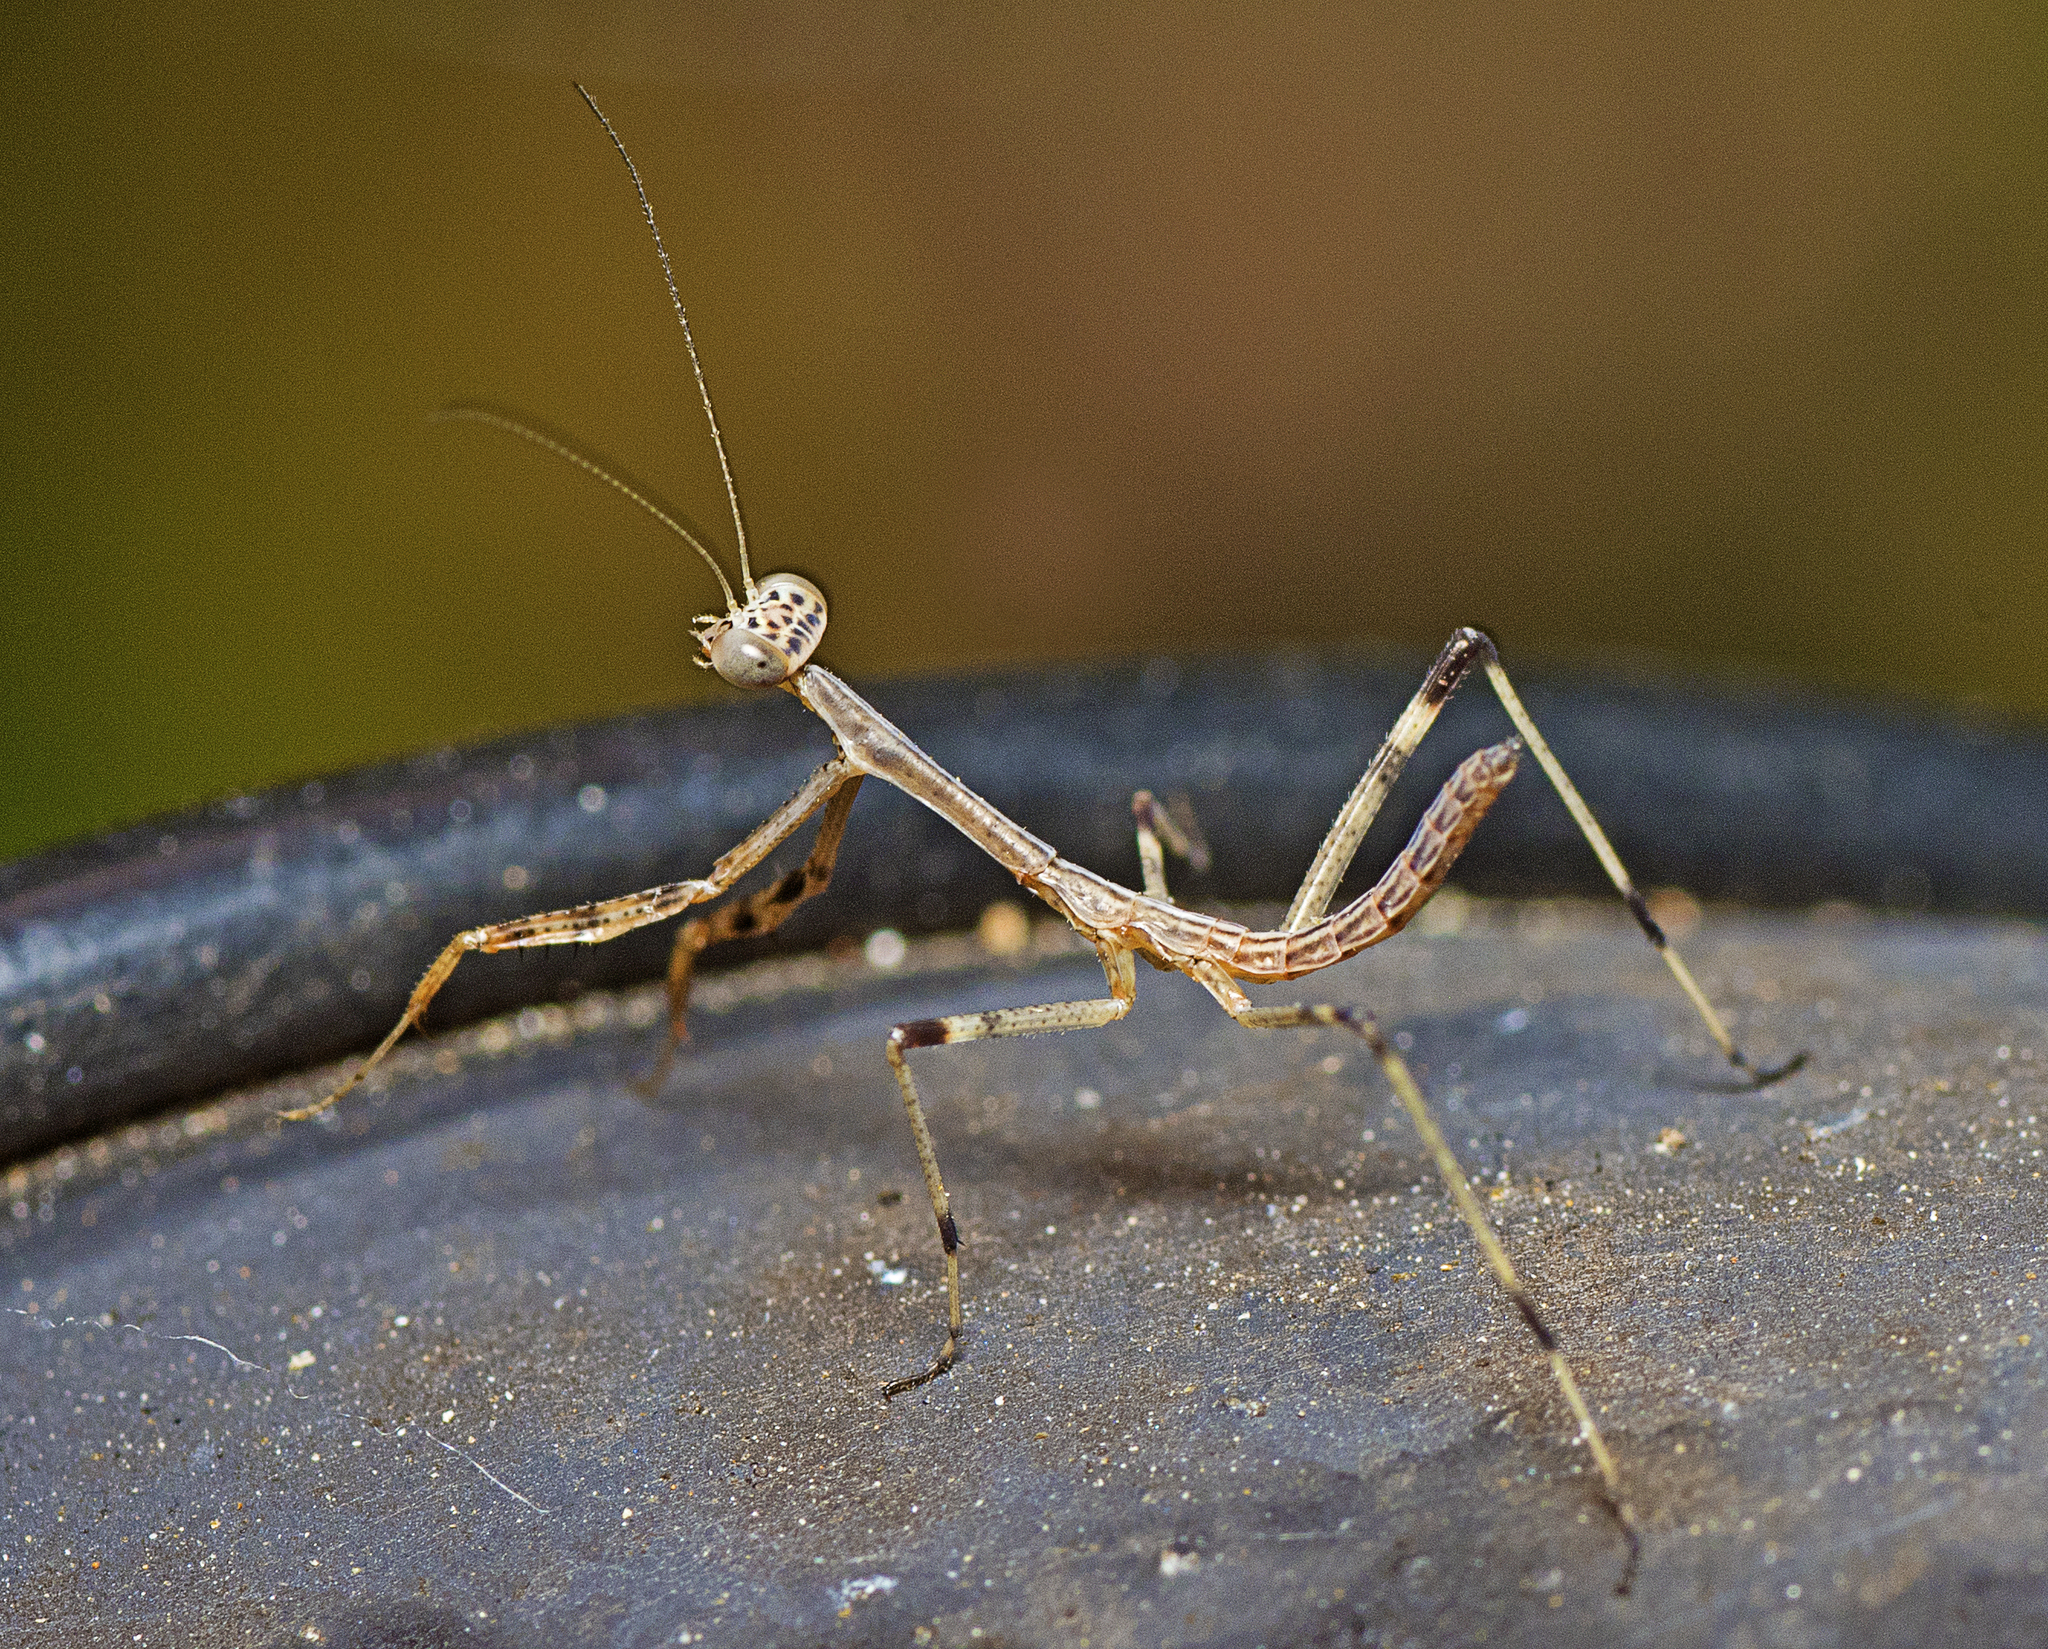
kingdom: Animalia
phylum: Arthropoda
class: Insecta
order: Mantodea
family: Mantidae
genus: Archimantis
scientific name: Archimantis latistyla
